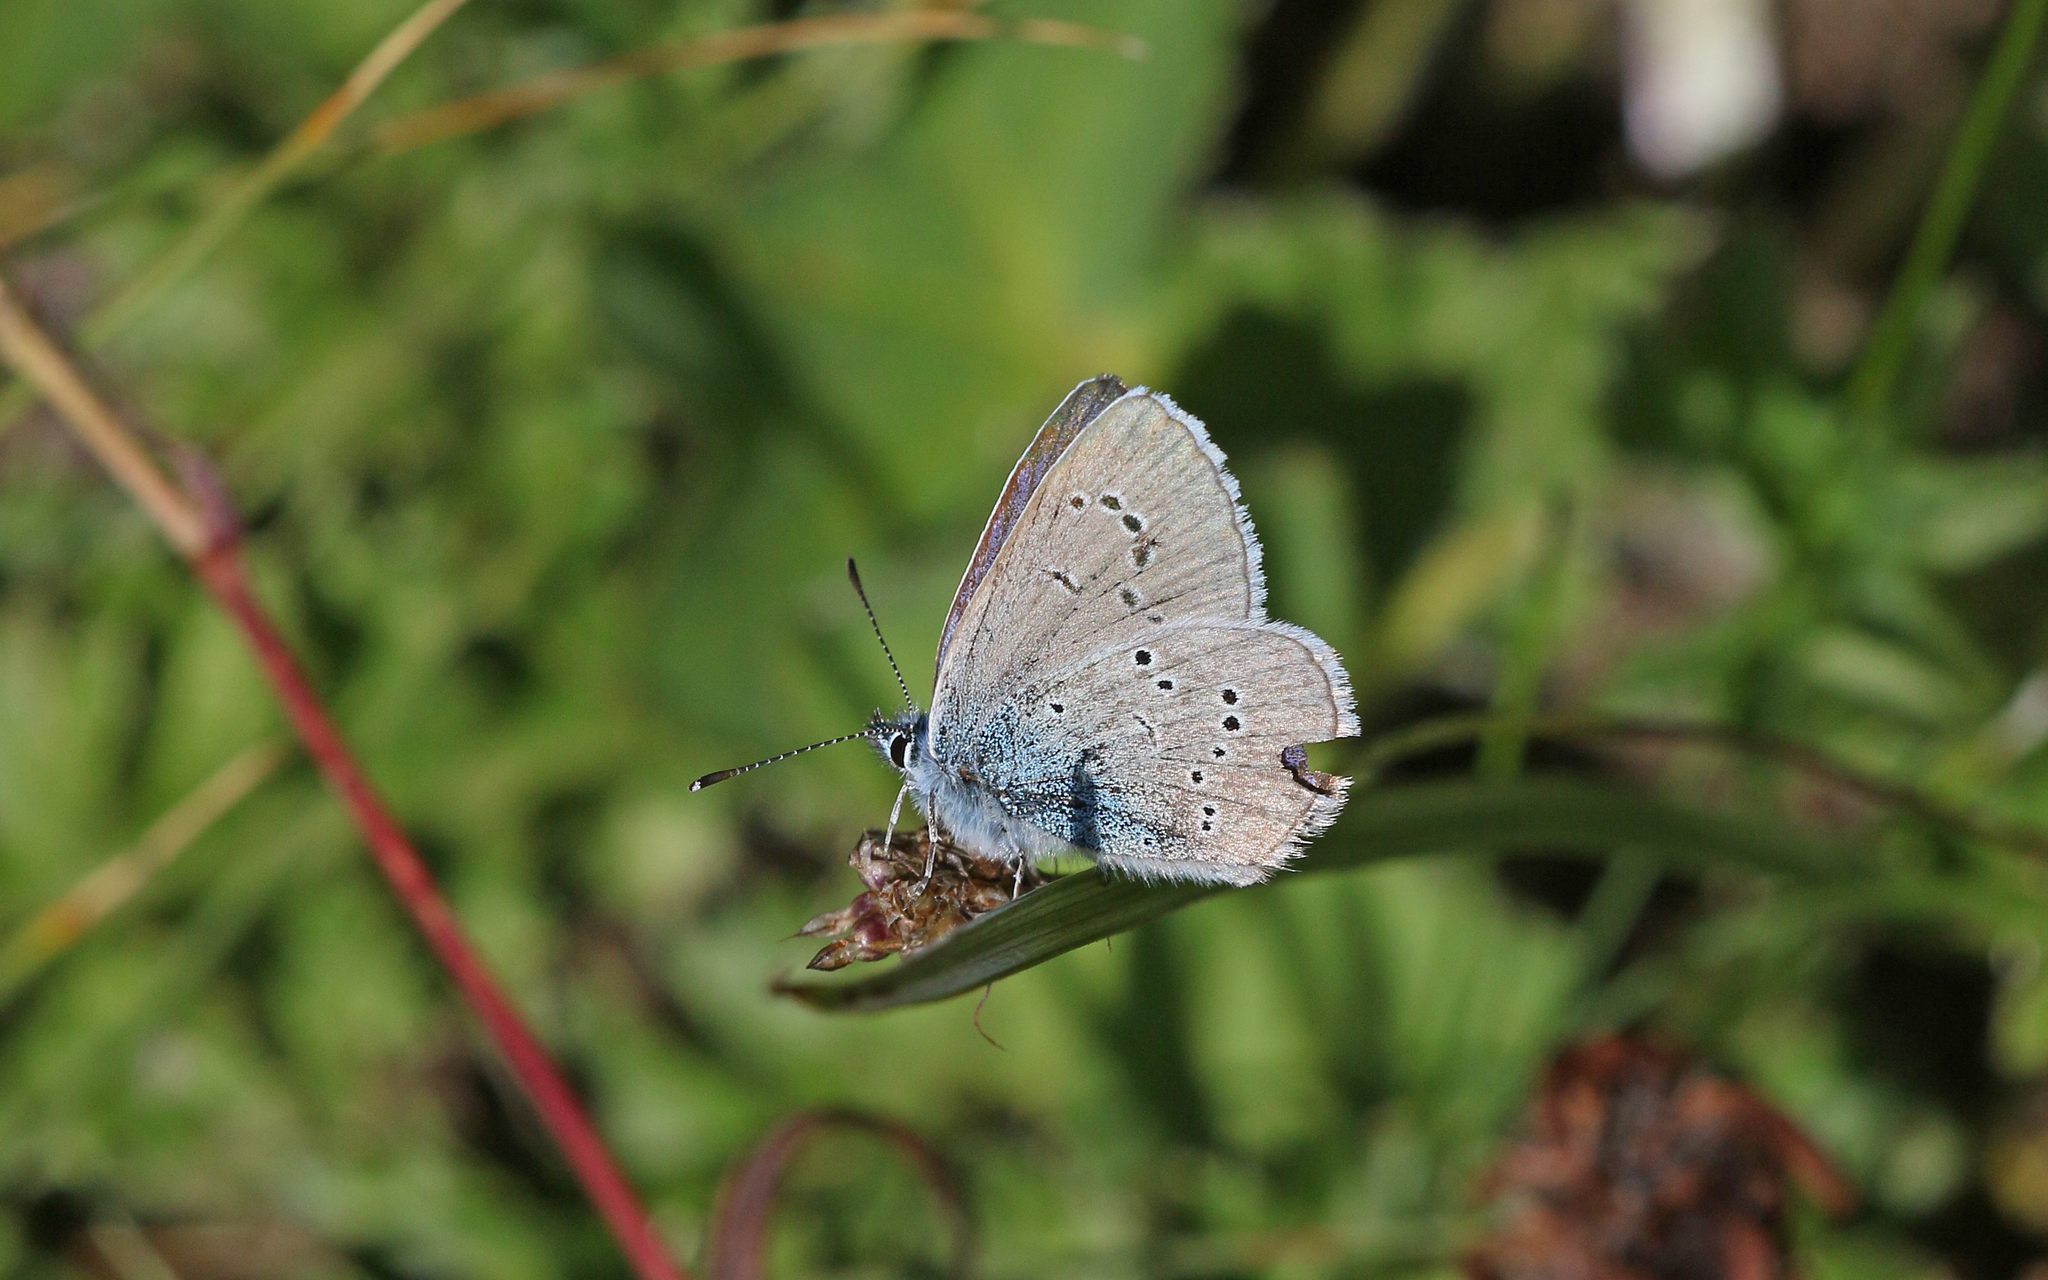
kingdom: Animalia
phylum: Arthropoda
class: Insecta
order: Lepidoptera
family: Lycaenidae
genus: Cyaniris
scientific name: Cyaniris semiargus
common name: Mazarine blue
